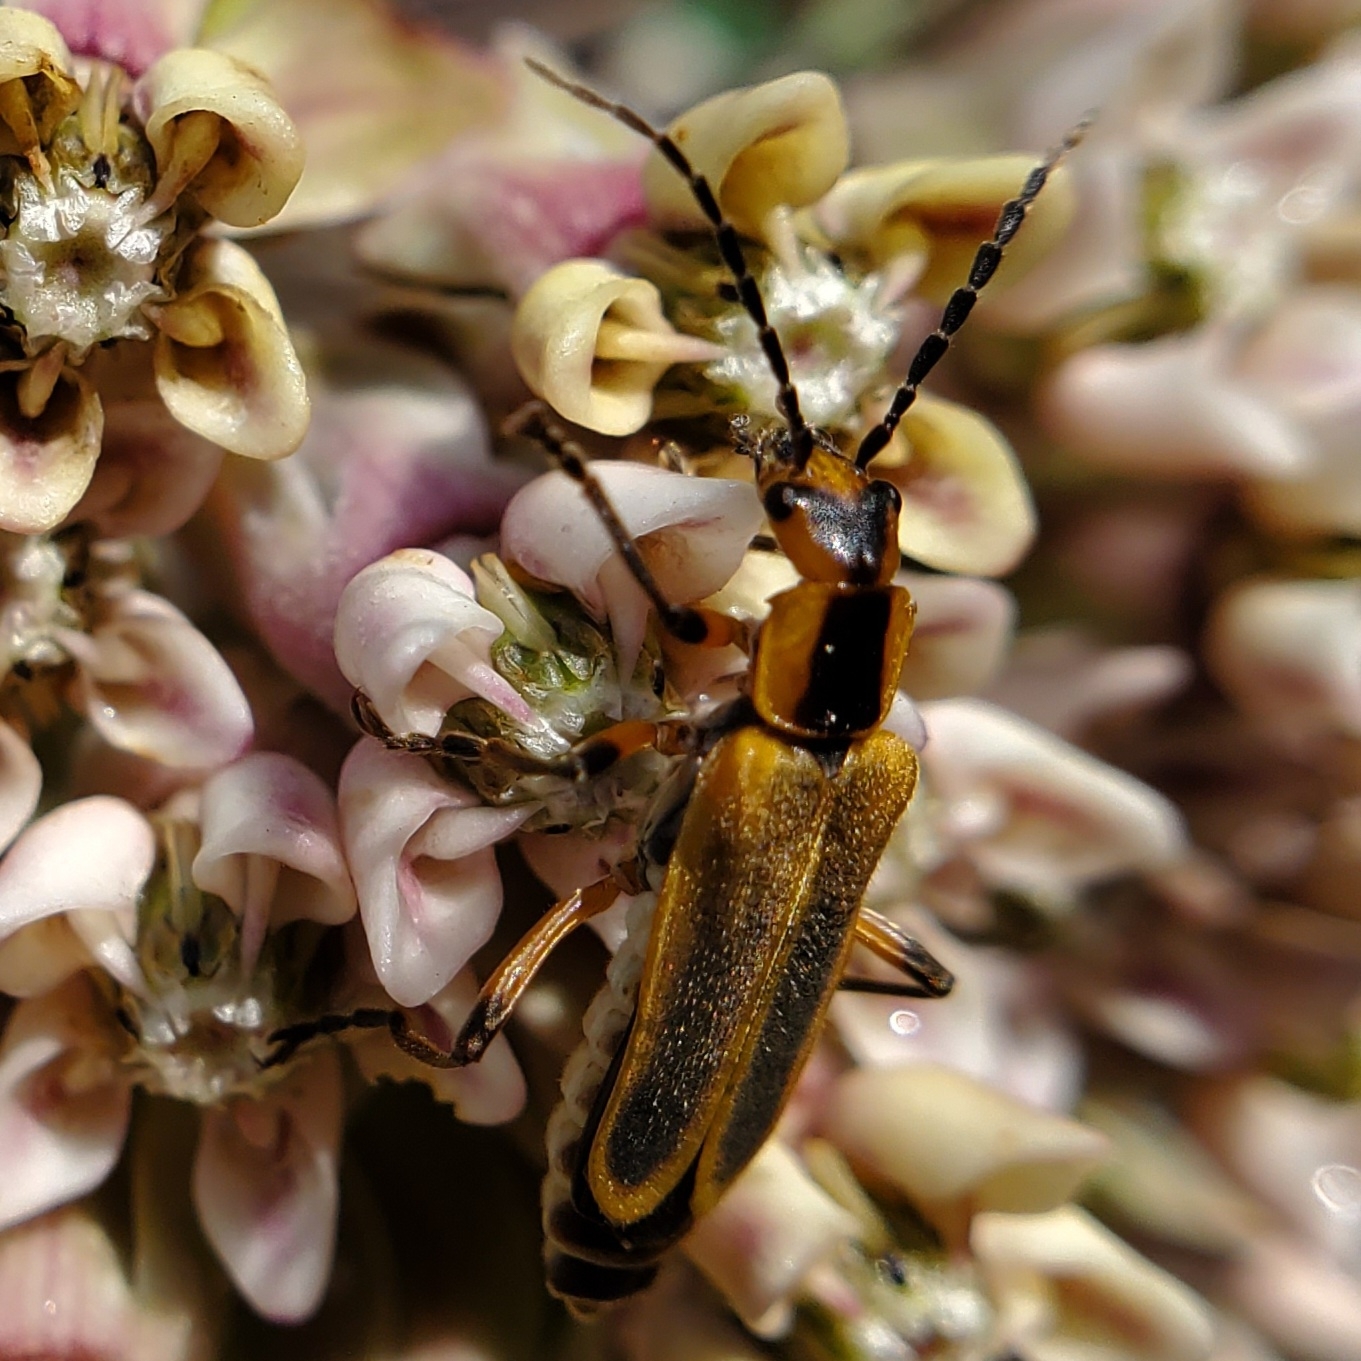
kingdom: Animalia
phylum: Arthropoda
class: Insecta
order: Coleoptera
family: Cantharidae
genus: Chauliognathus
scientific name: Chauliognathus marginatus
